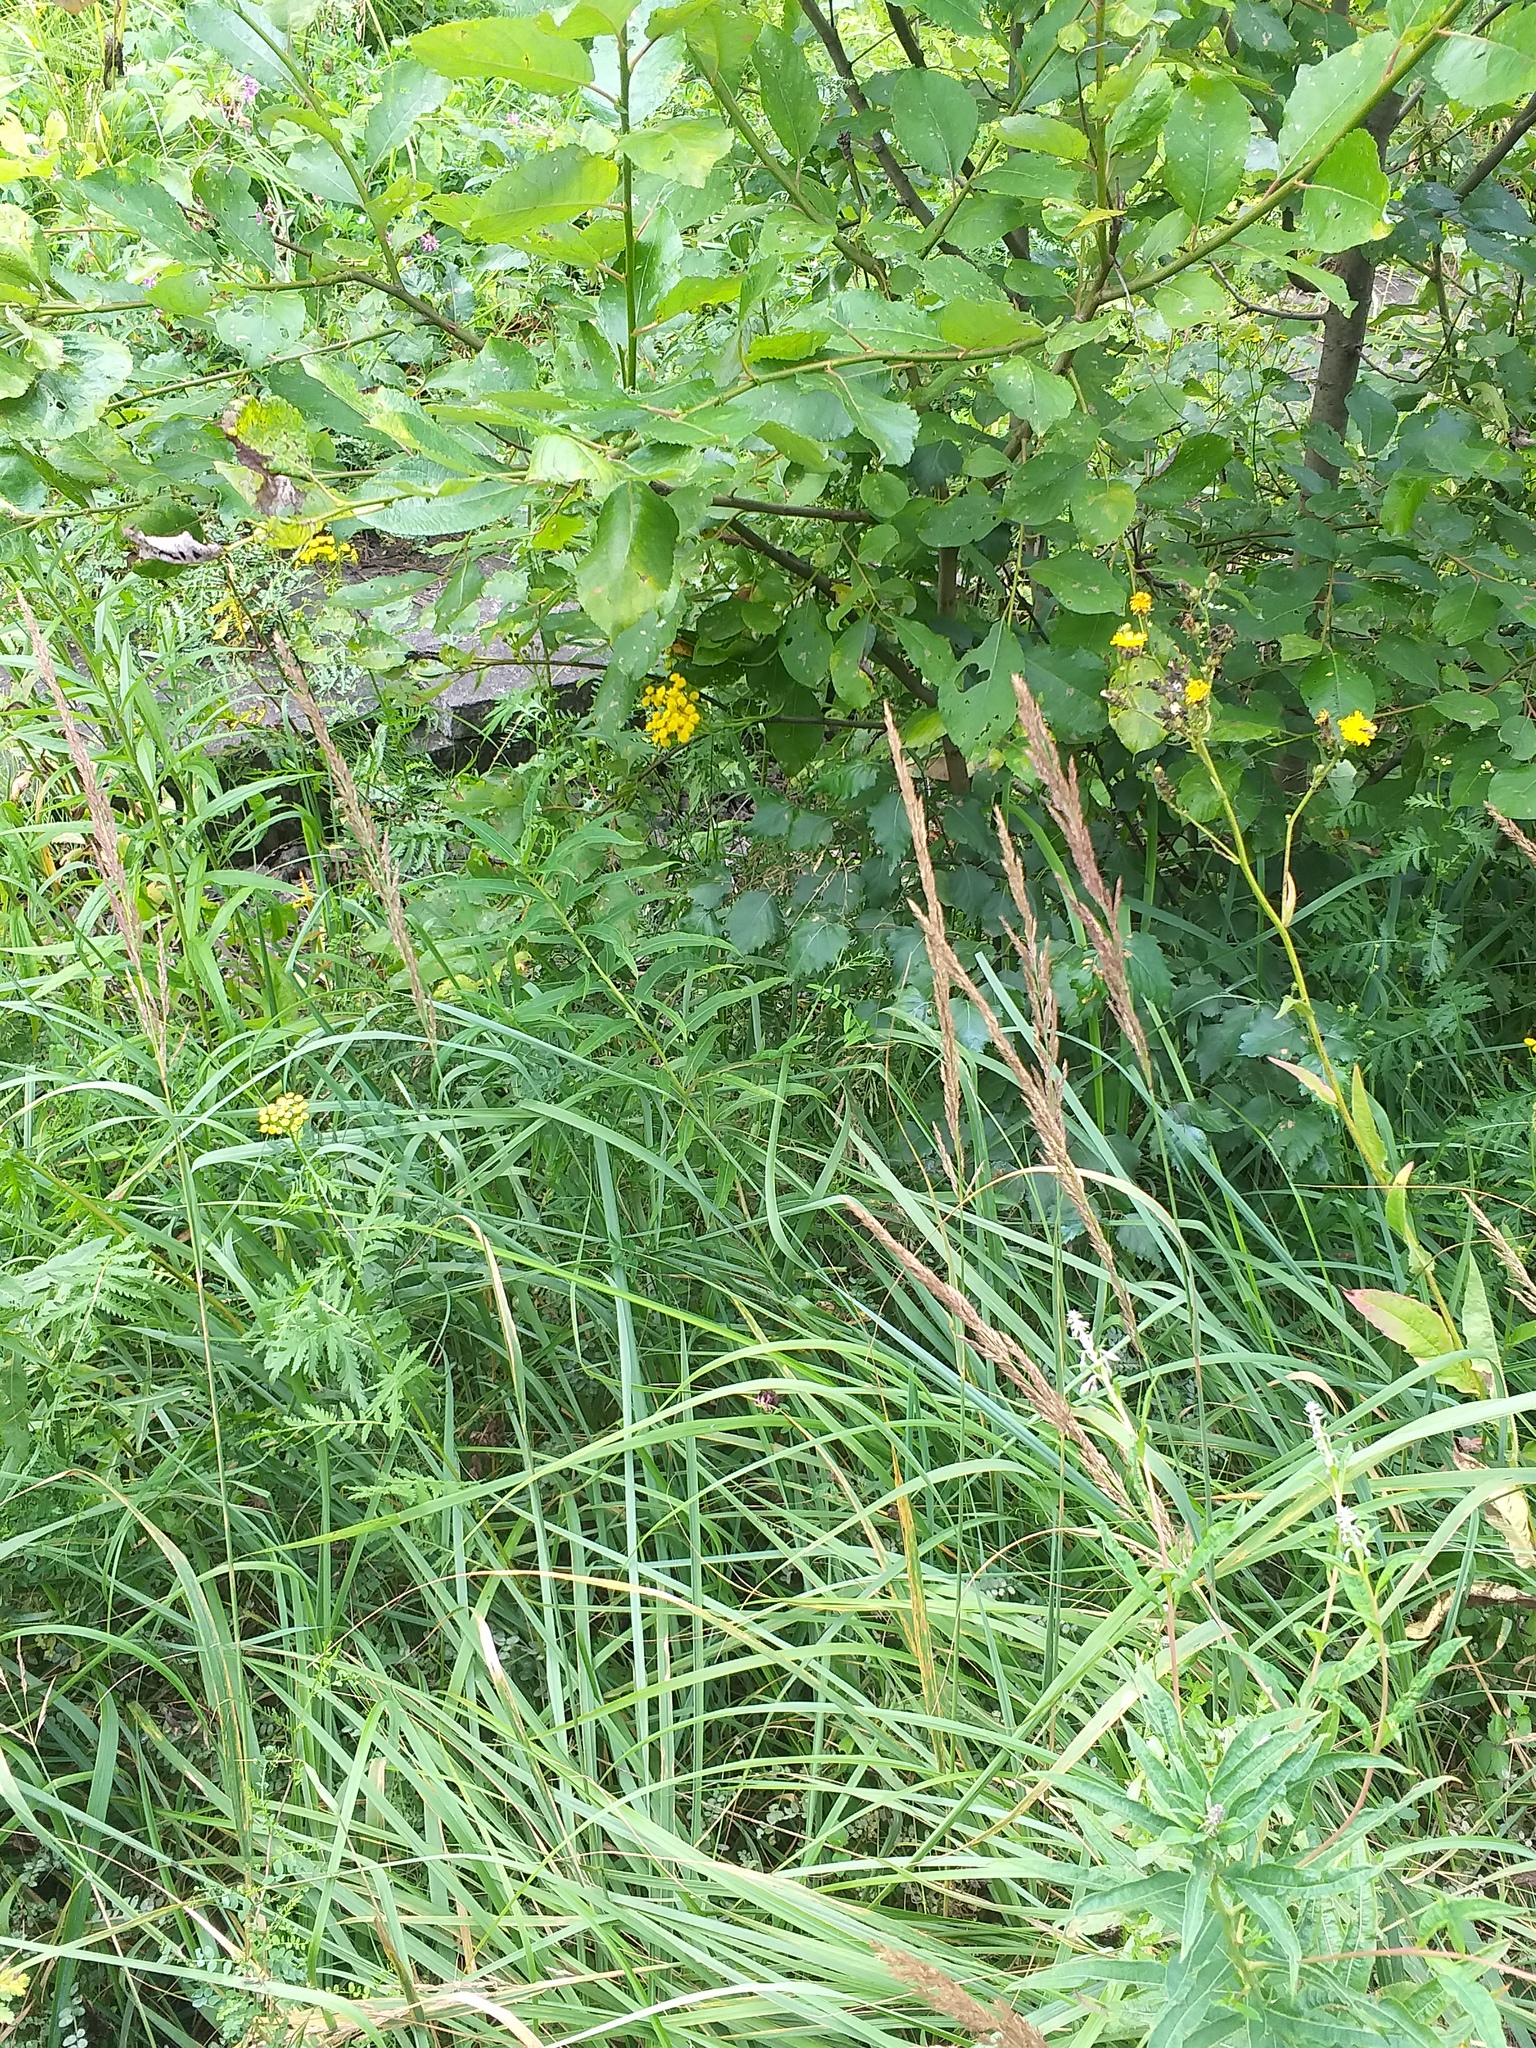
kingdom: Plantae
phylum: Tracheophyta
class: Liliopsida
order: Poales
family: Poaceae
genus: Calamagrostis
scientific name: Calamagrostis epigejos
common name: Wood small-reed
